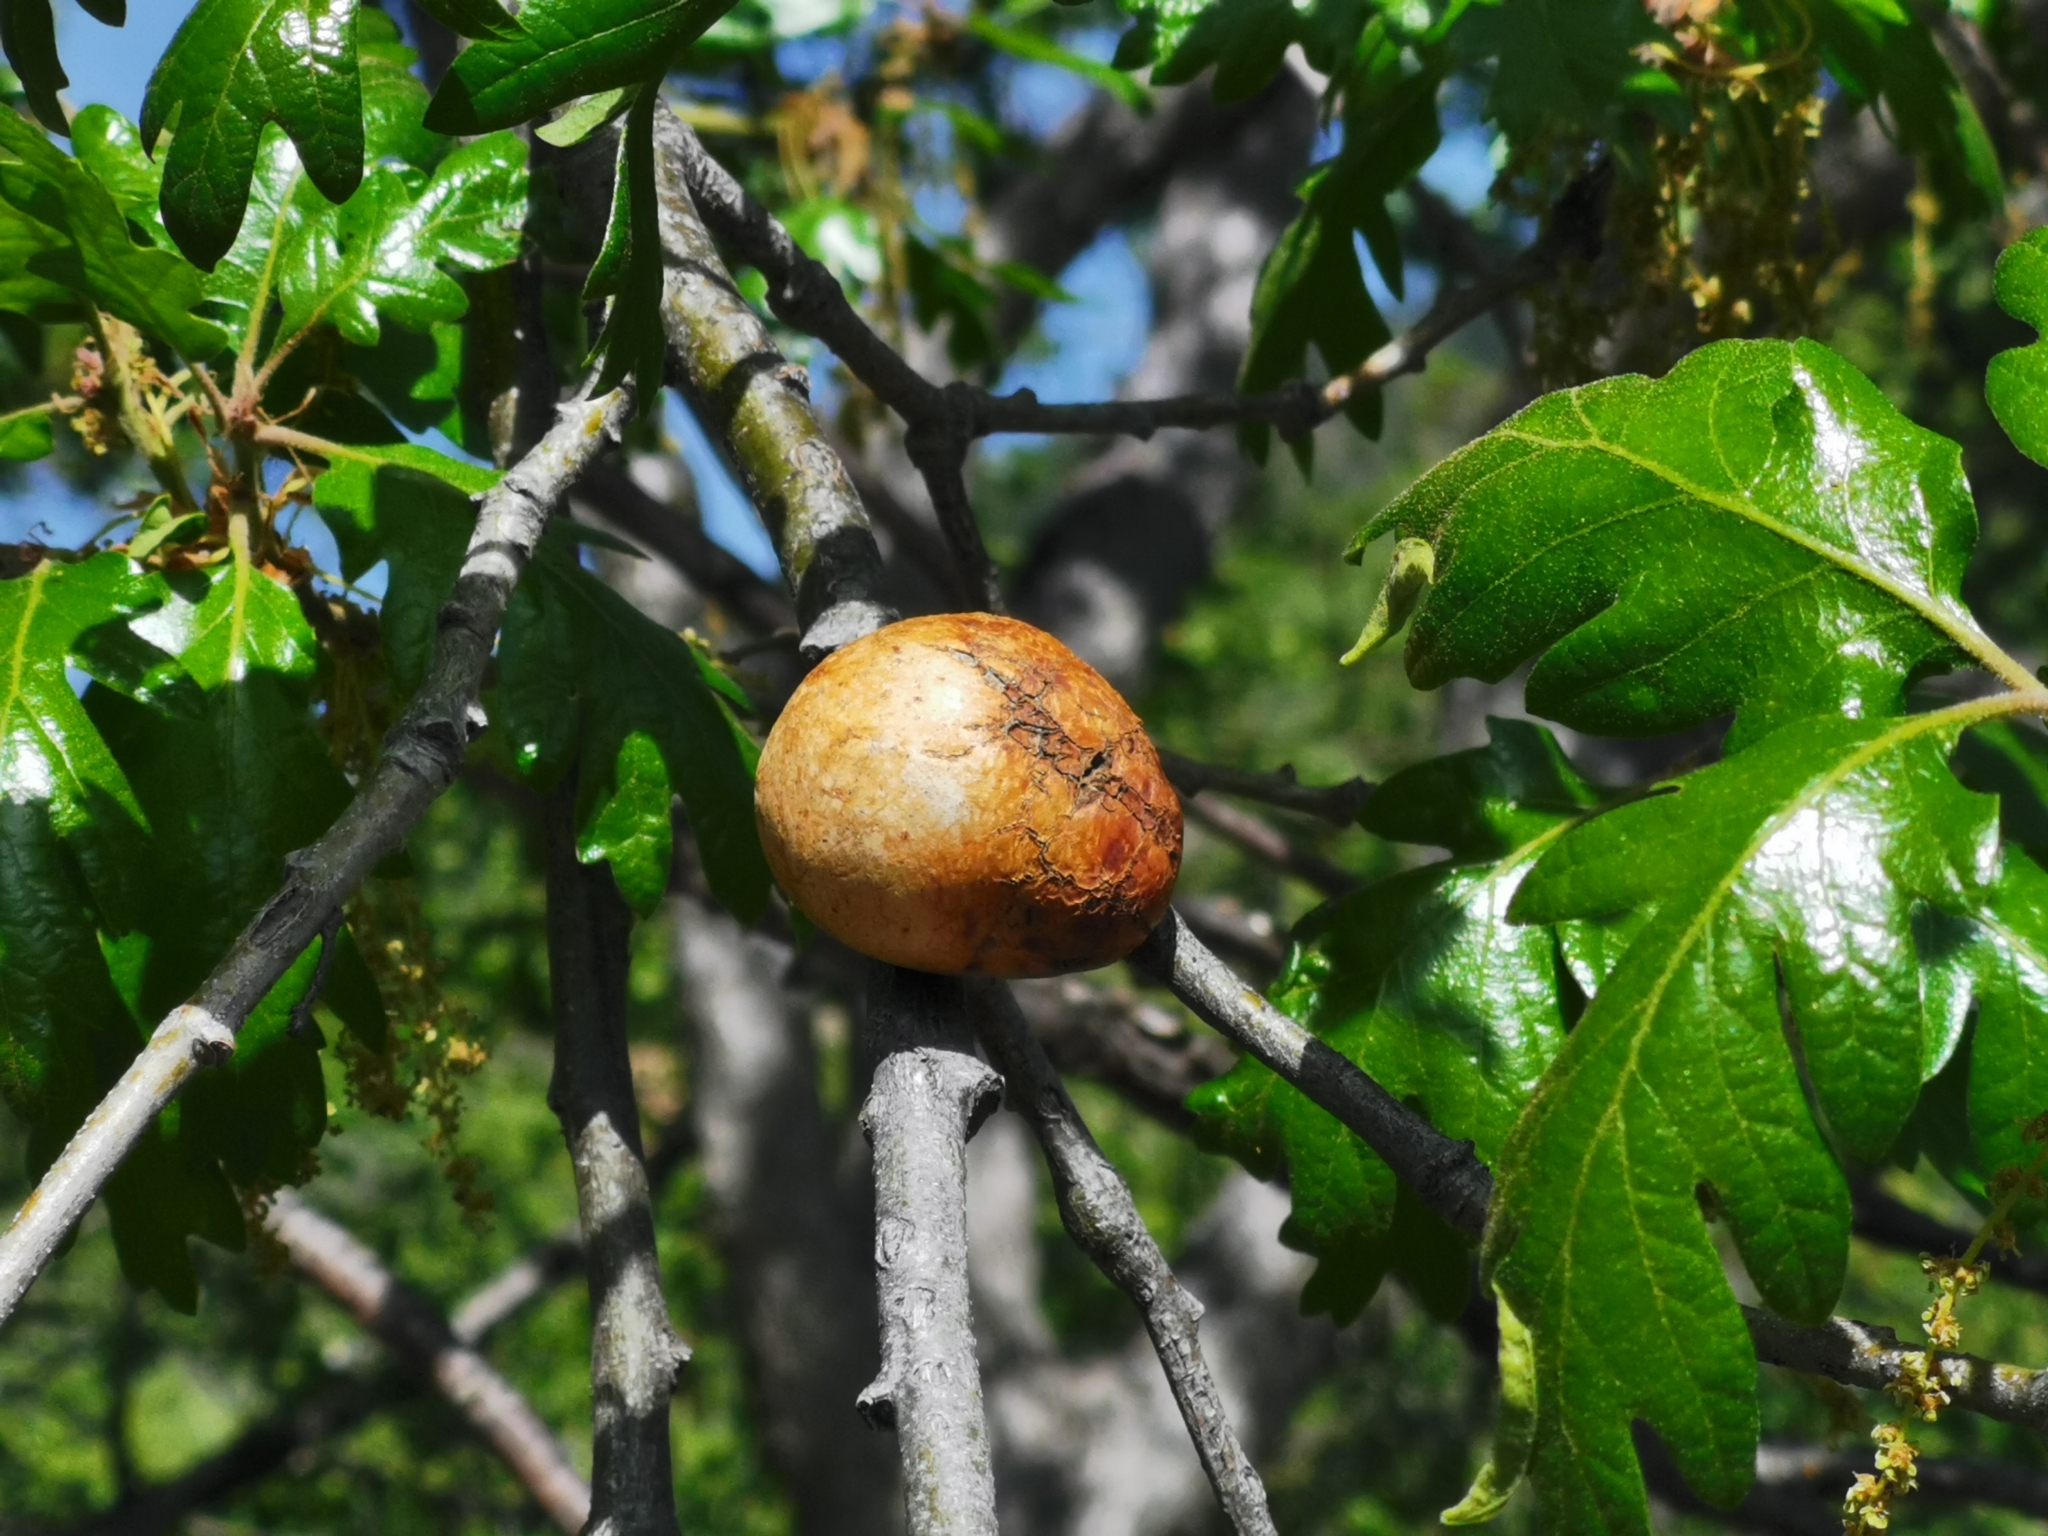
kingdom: Animalia
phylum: Arthropoda
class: Insecta
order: Hymenoptera
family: Cynipidae
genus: Andricus
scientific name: Andricus quercuscalifornicus
